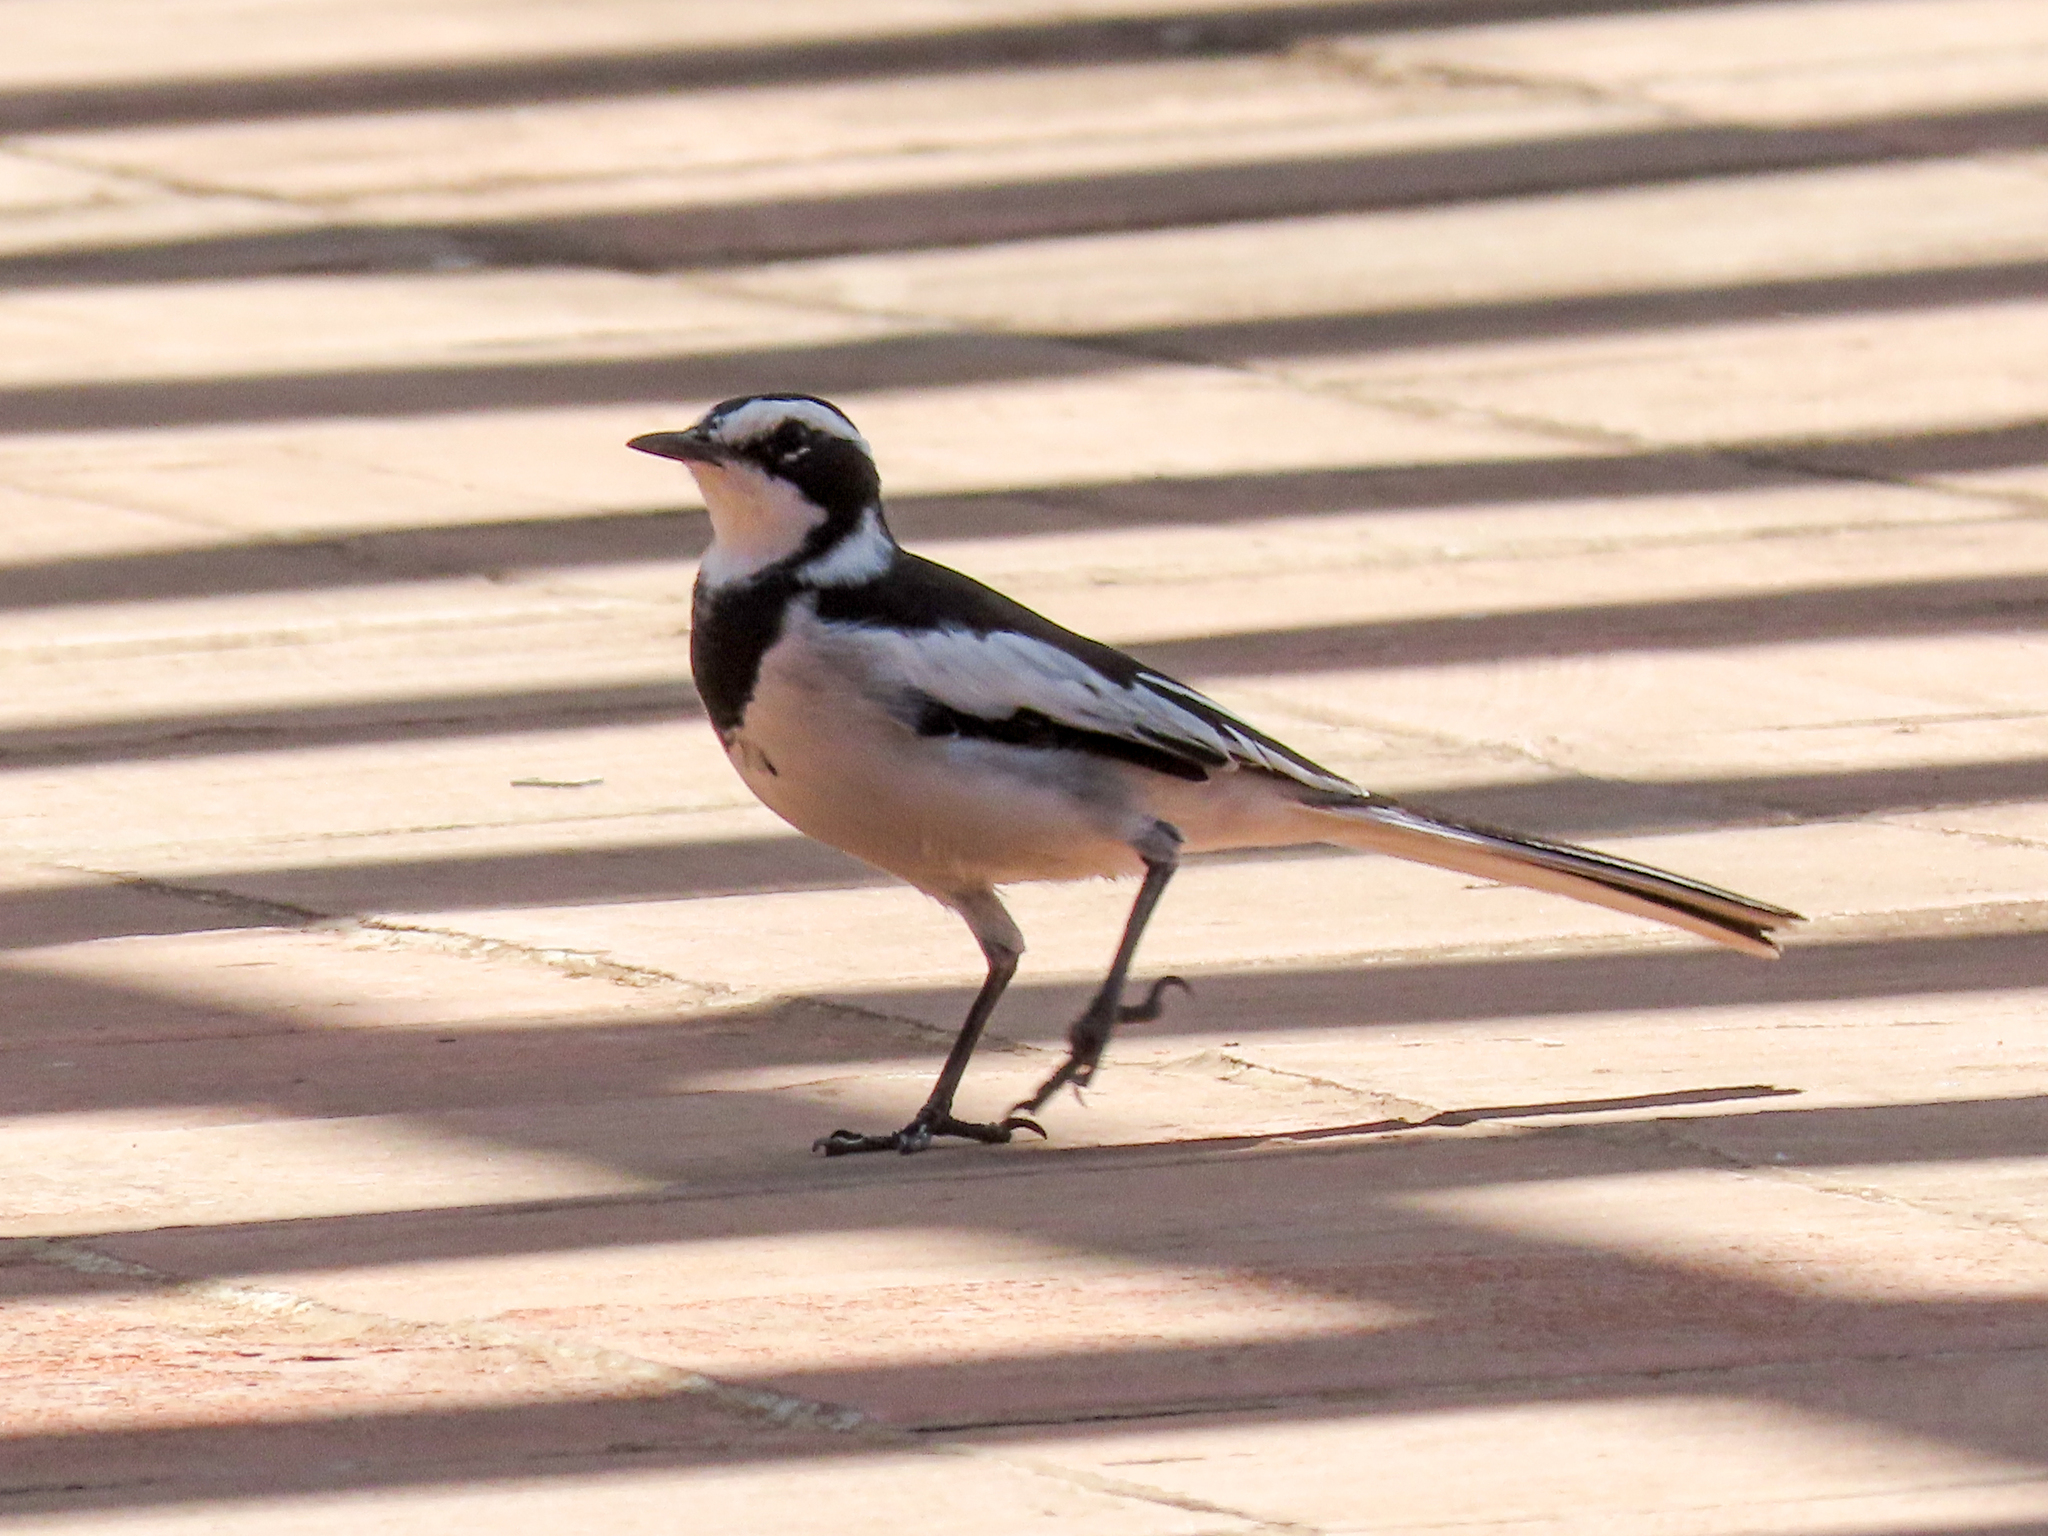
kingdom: Animalia
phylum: Chordata
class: Aves
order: Passeriformes
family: Motacillidae
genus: Motacilla
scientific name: Motacilla aguimp
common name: African pied wagtail
